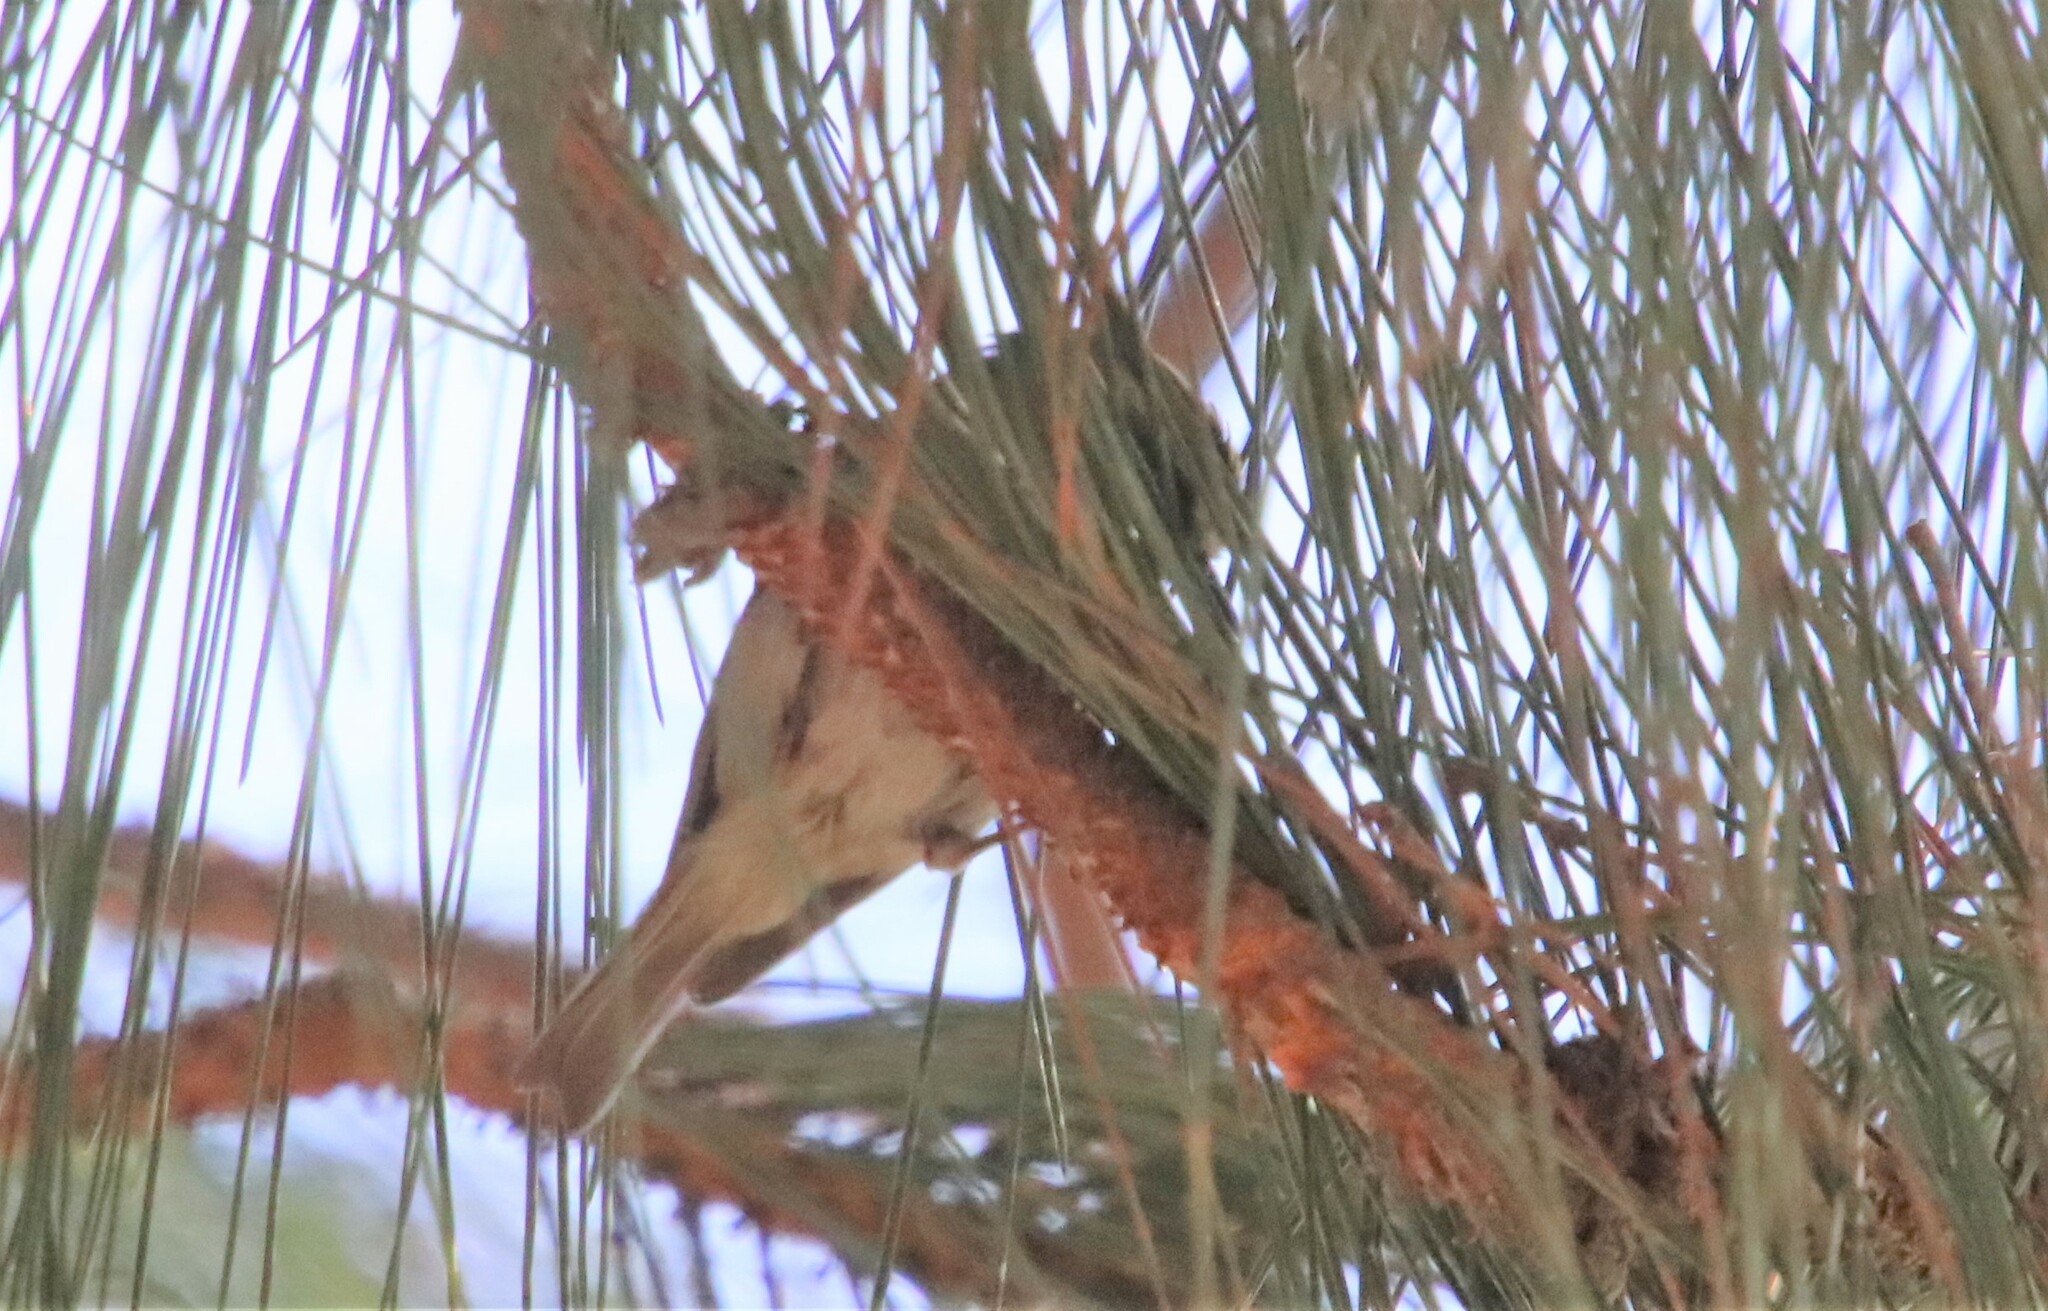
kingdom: Animalia
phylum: Chordata
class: Aves
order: Passeriformes
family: Regulidae
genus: Regulus
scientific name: Regulus satrapa
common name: Golden-crowned kinglet
